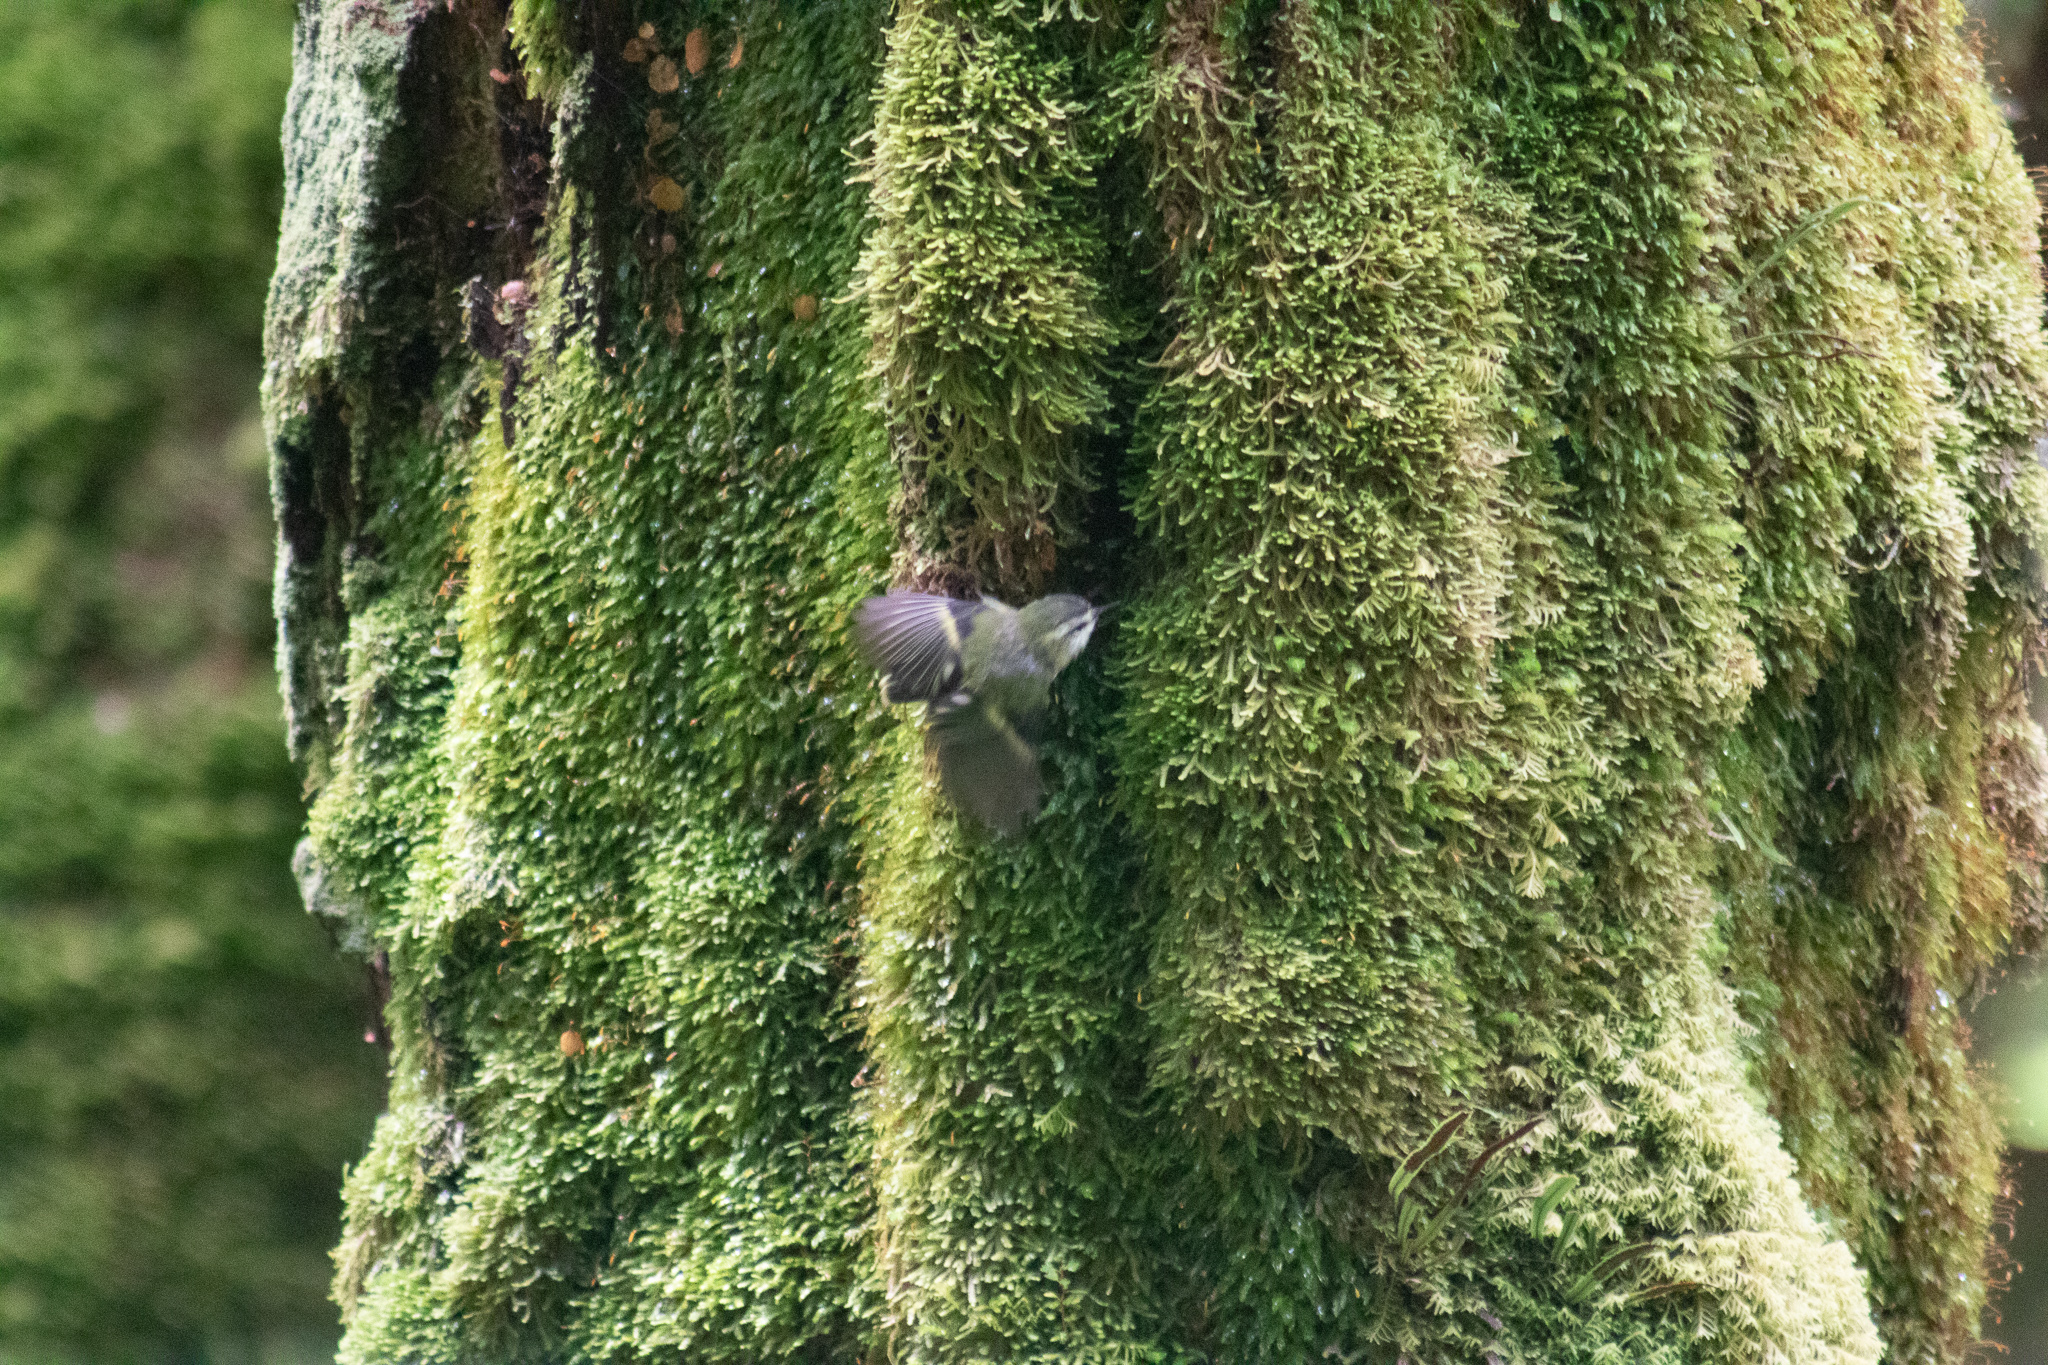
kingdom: Animalia
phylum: Chordata
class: Aves
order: Passeriformes
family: Acanthisittidae
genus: Acanthisitta
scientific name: Acanthisitta chloris
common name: Rifleman
